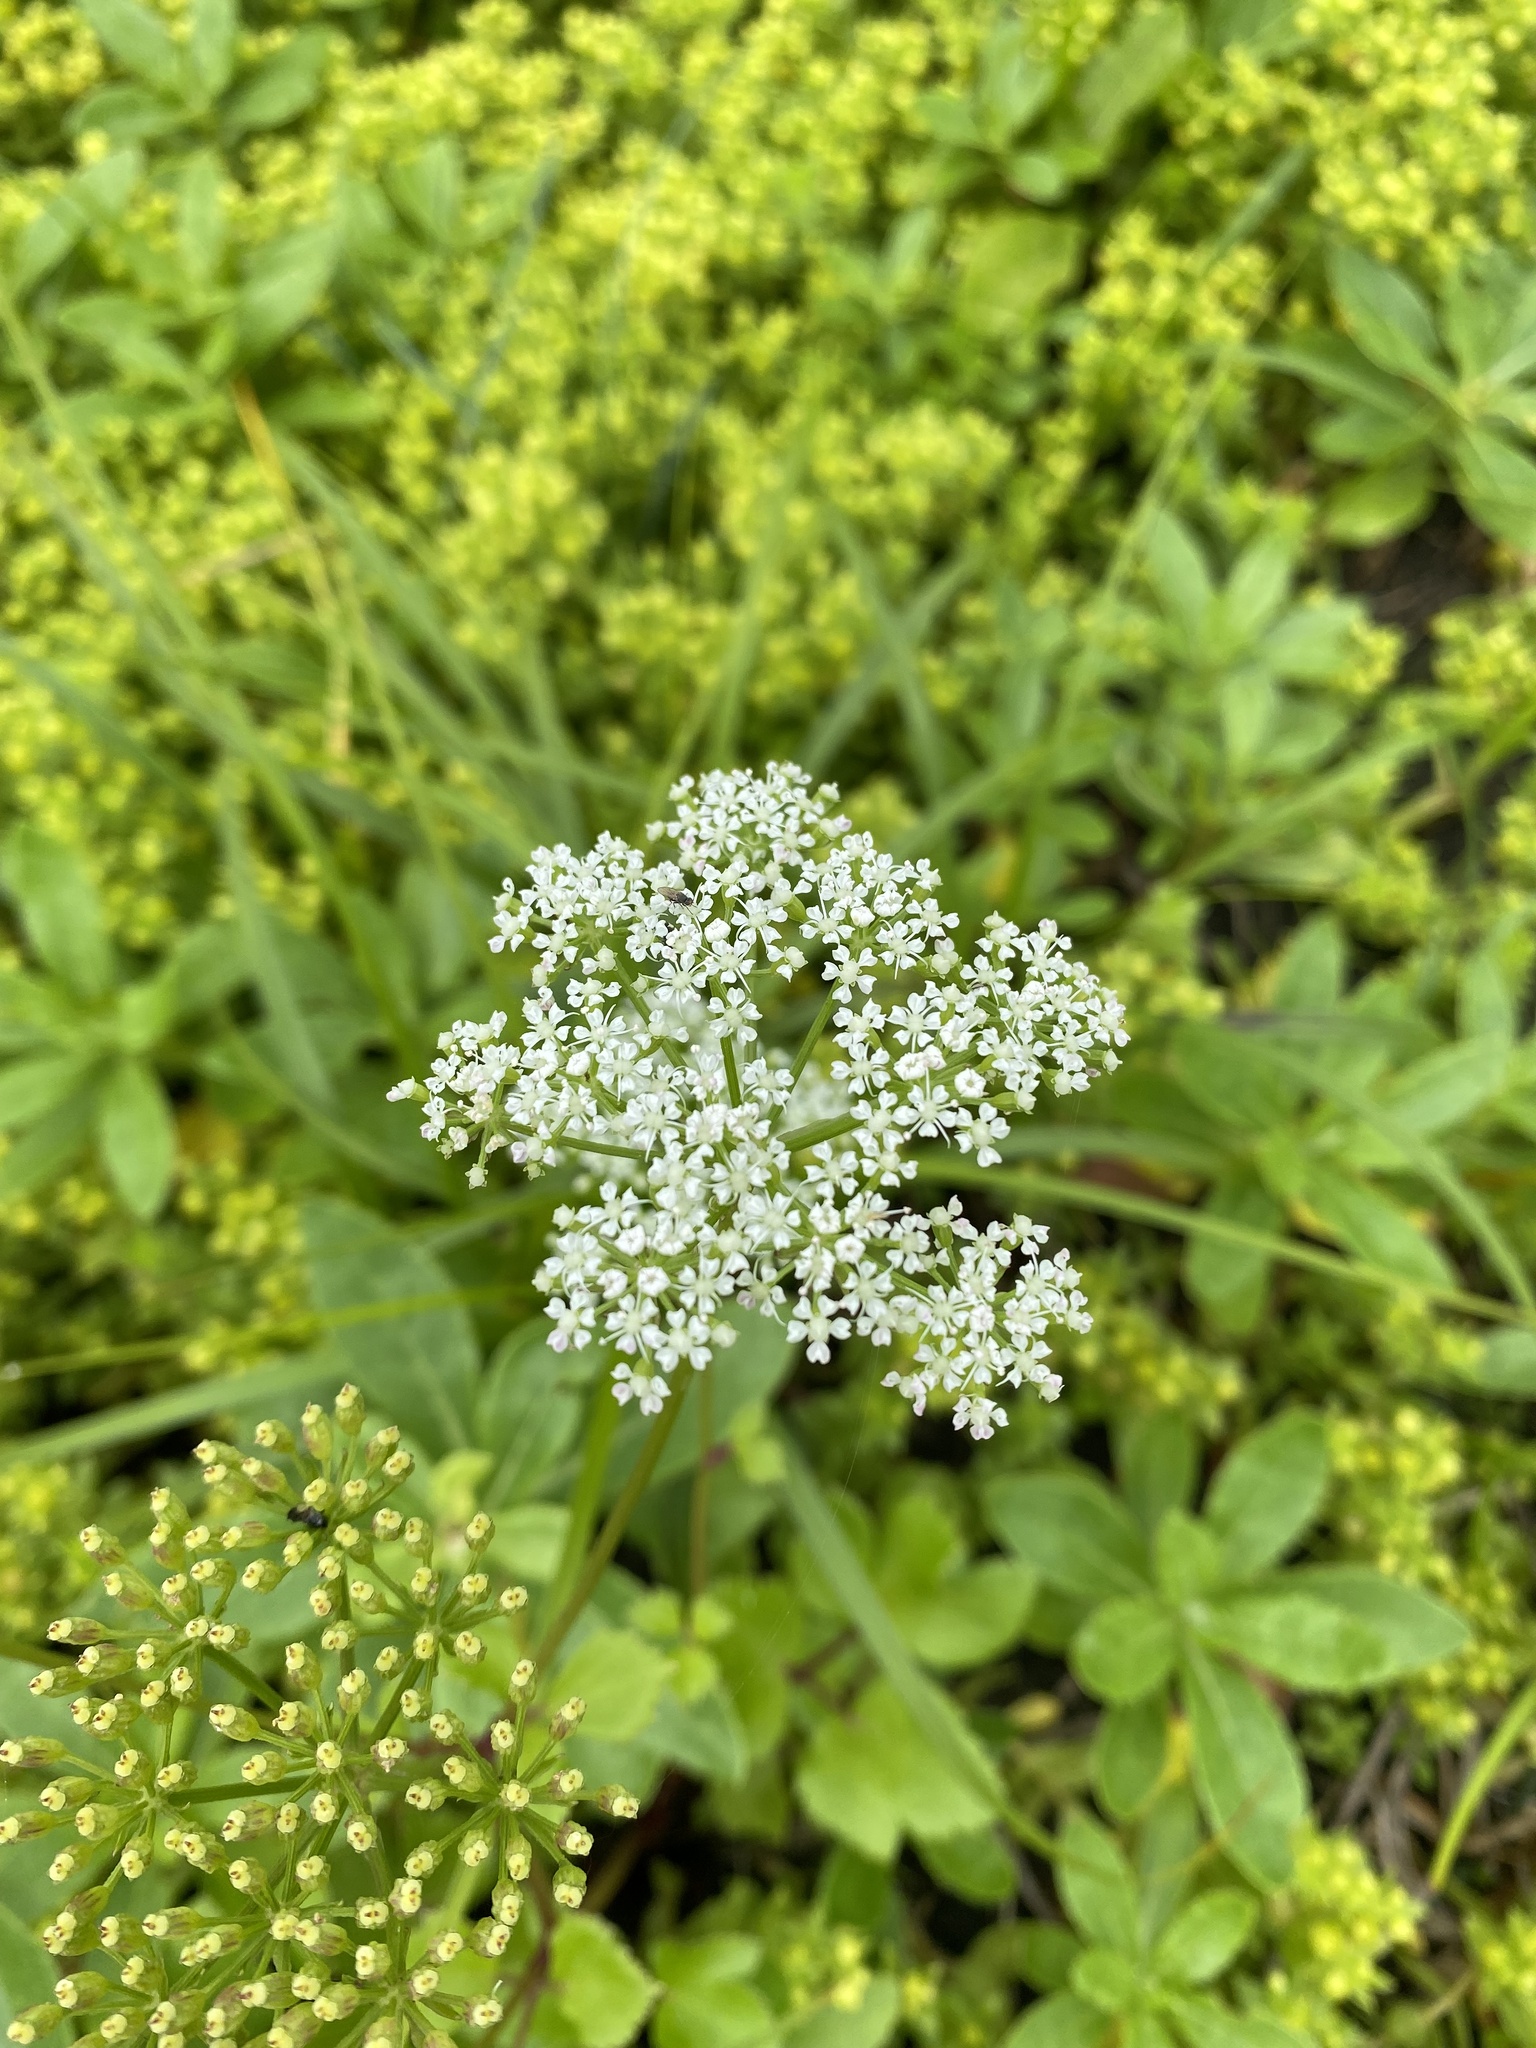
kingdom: Plantae
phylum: Tracheophyta
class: Magnoliopsida
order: Apiales
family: Apiaceae
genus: Ligusticum
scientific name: Ligusticum scothicum
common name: Beach lovage
